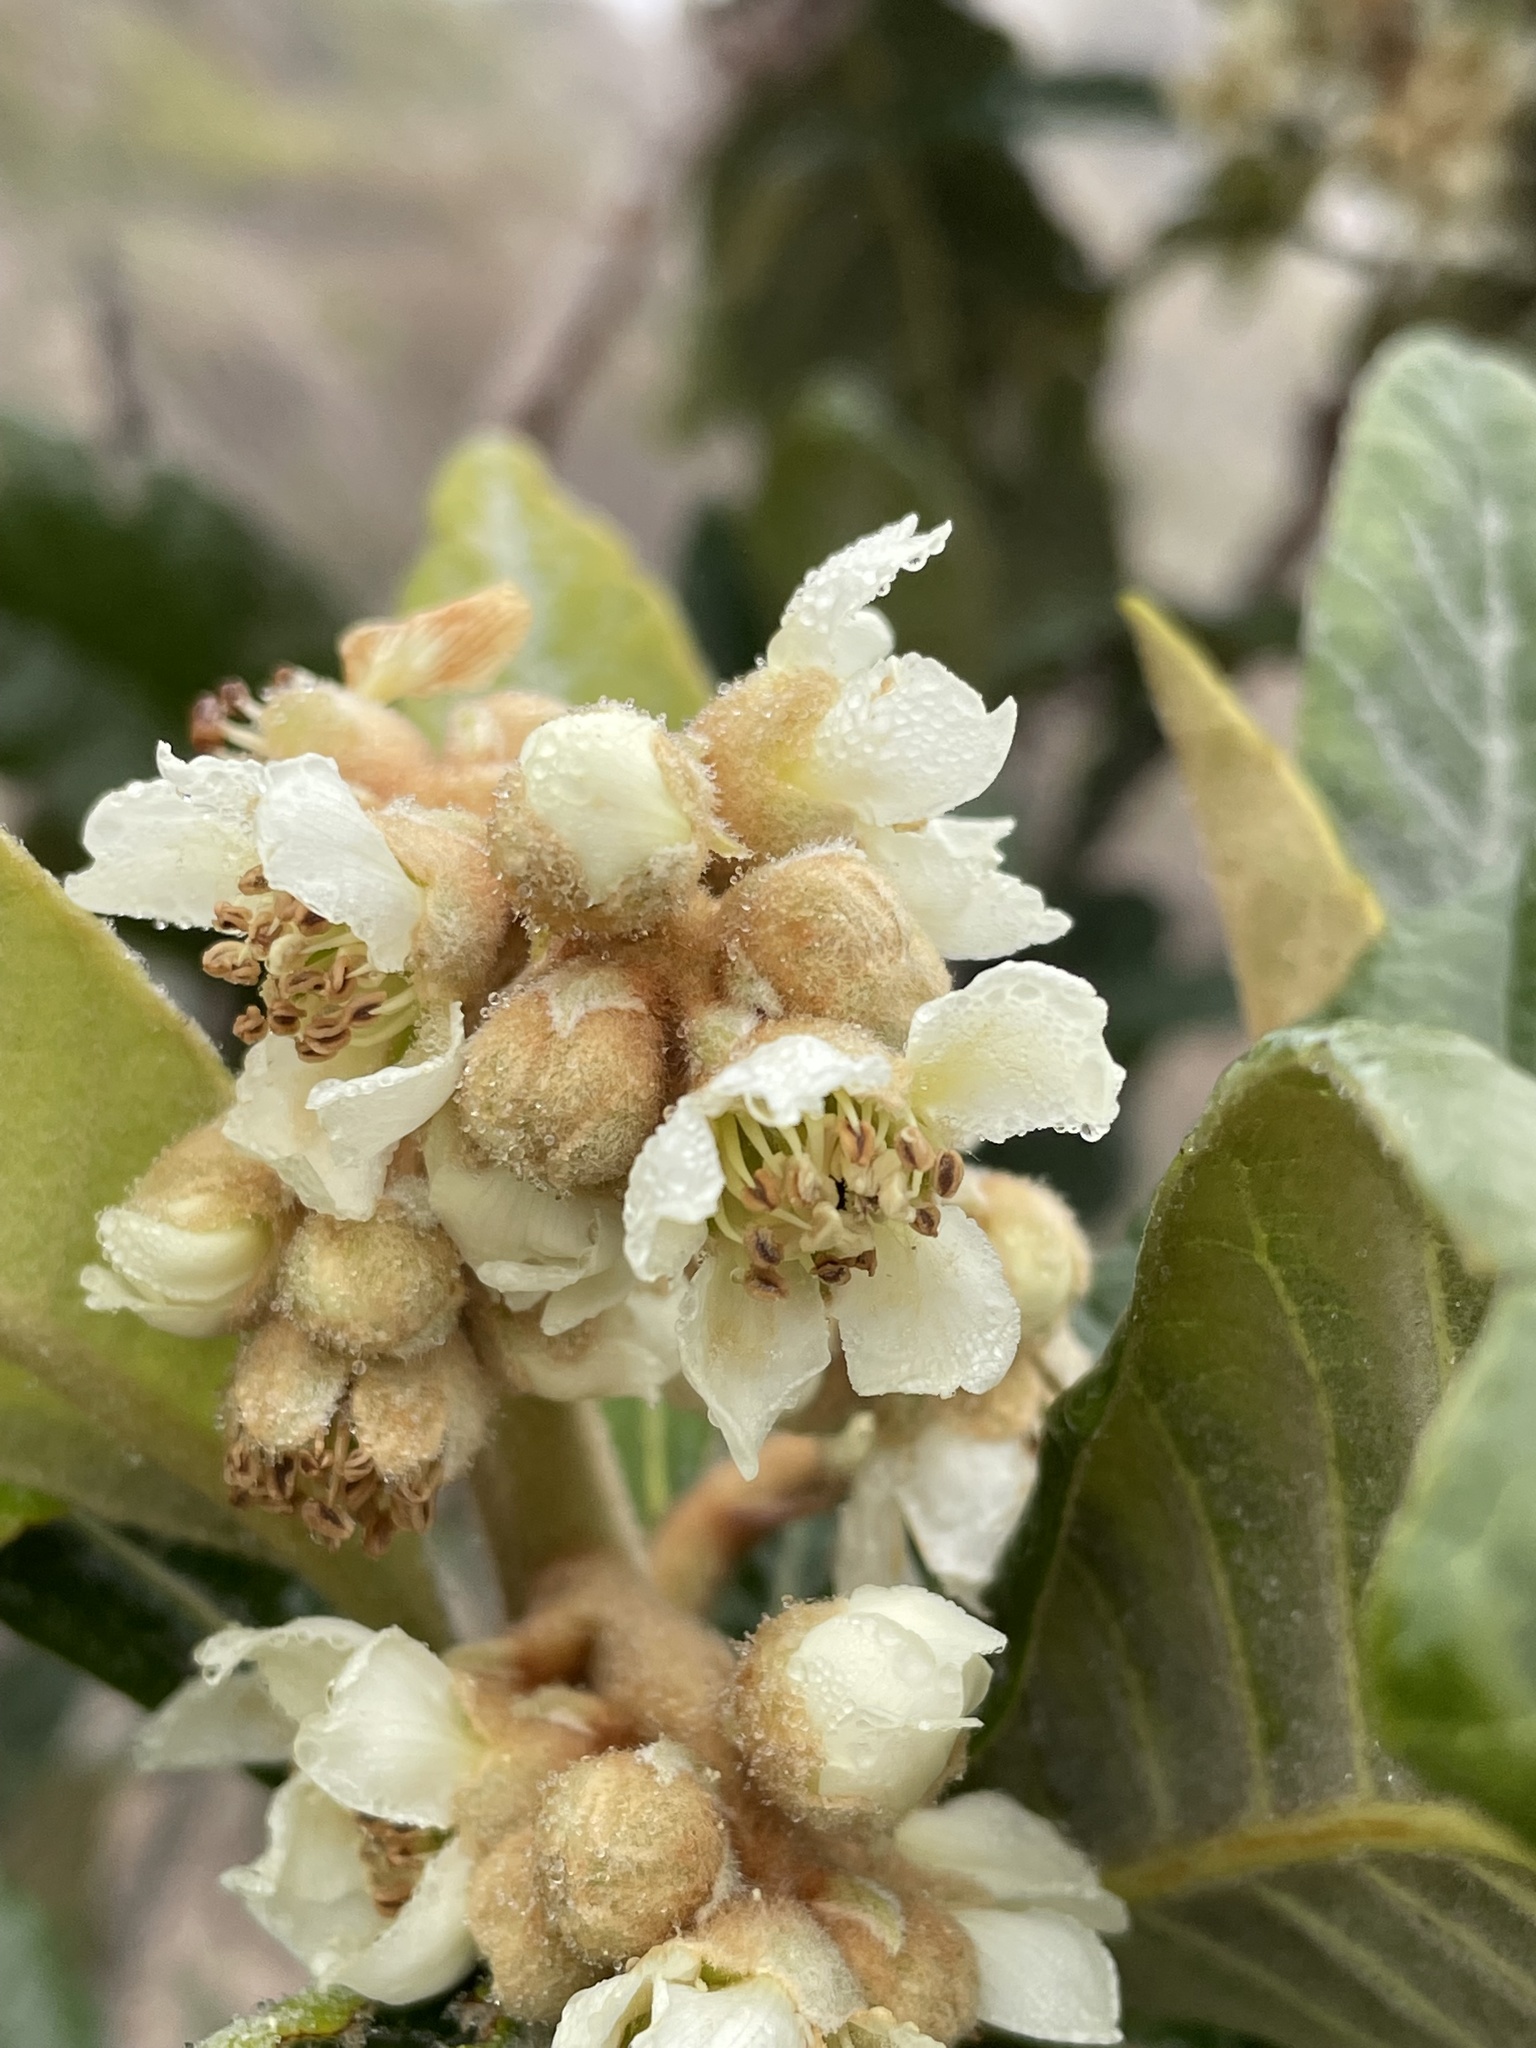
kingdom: Plantae
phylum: Tracheophyta
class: Magnoliopsida
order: Rosales
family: Rosaceae
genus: Rhaphiolepis
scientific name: Rhaphiolepis bibas
